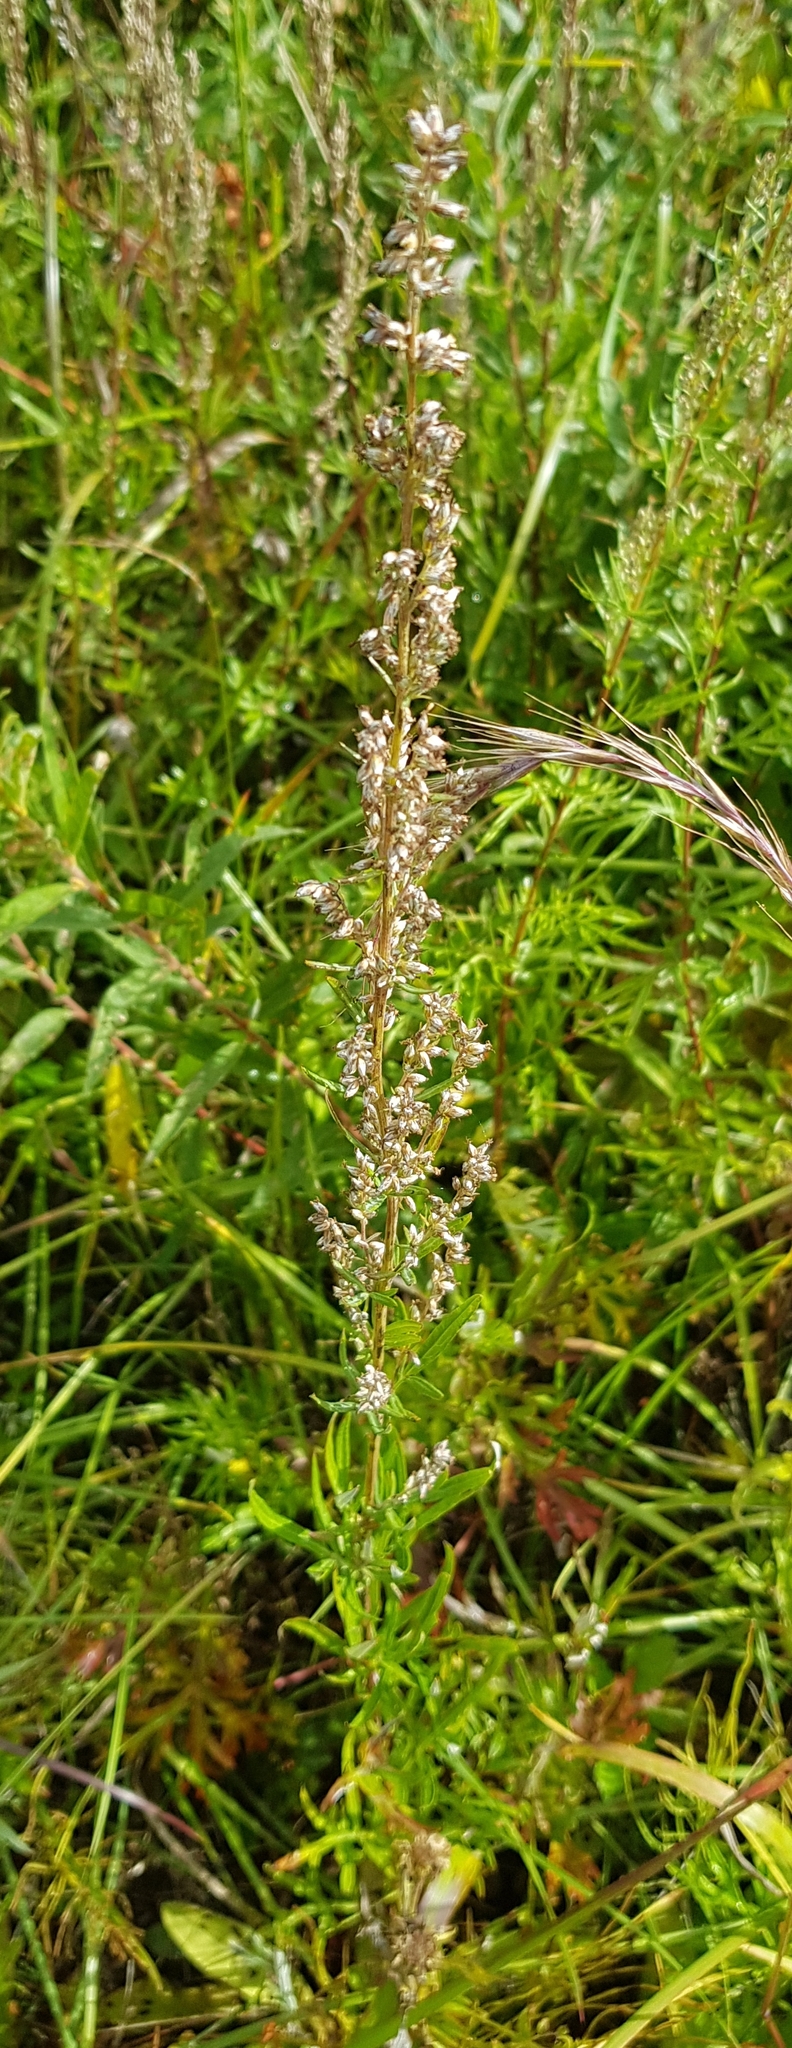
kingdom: Plantae
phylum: Tracheophyta
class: Magnoliopsida
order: Asterales
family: Asteraceae
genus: Artemisia
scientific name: Artemisia mongolica
